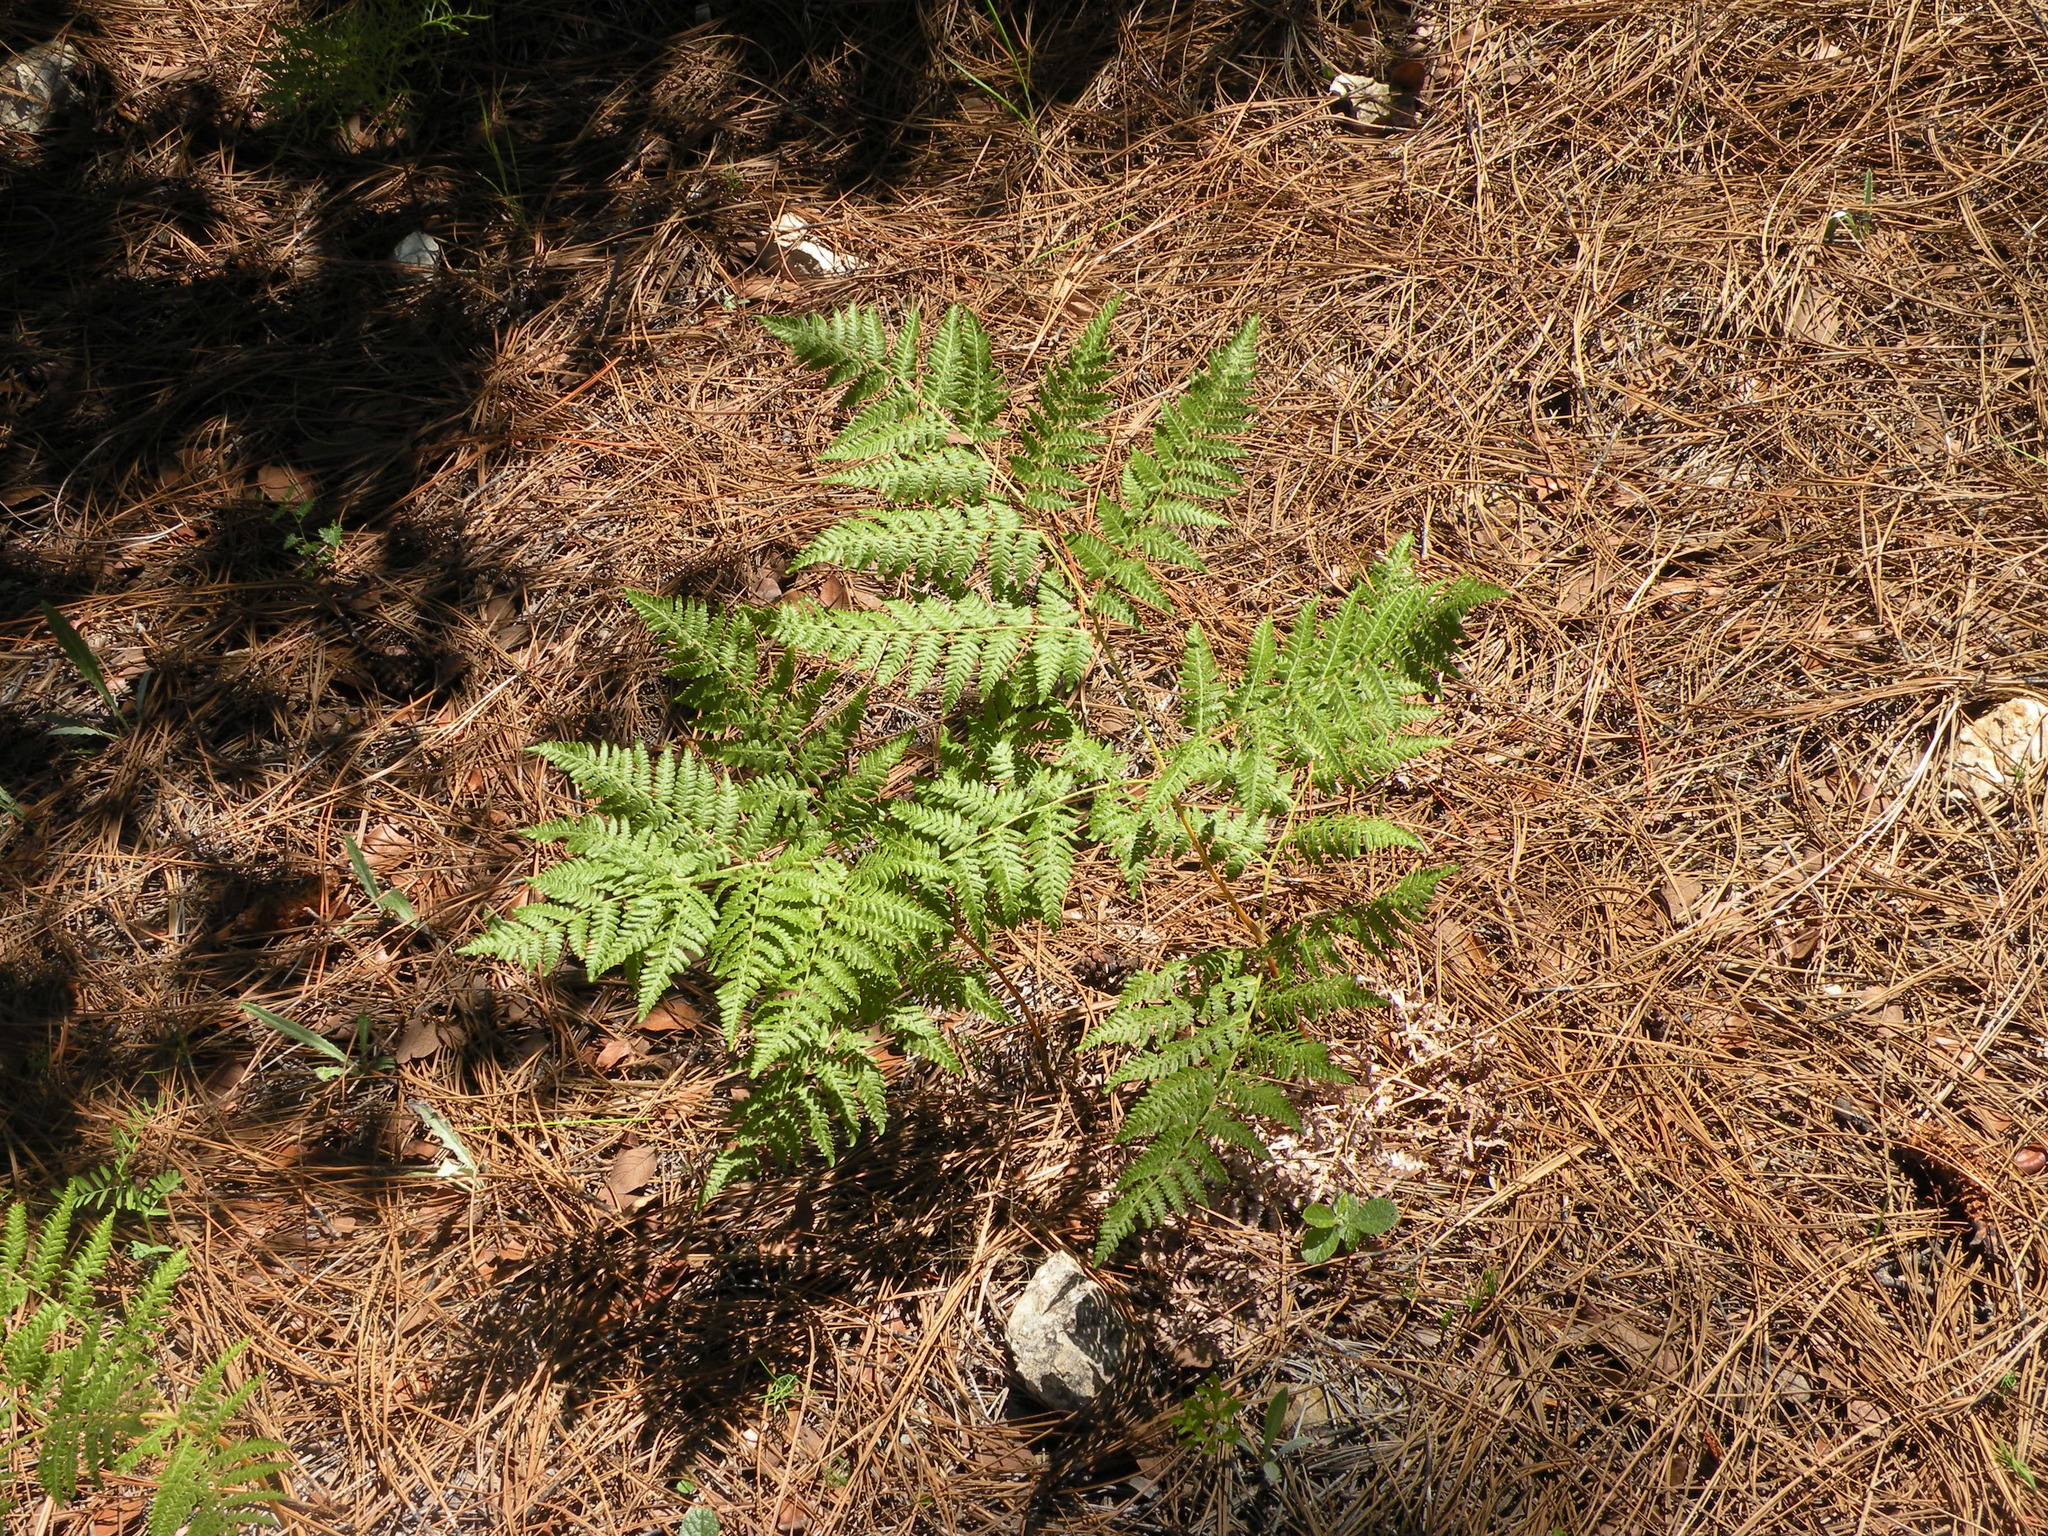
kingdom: Plantae
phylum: Tracheophyta
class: Polypodiopsida
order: Polypodiales
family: Dennstaedtiaceae
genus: Pteridium
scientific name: Pteridium aquilinum
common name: Bracken
